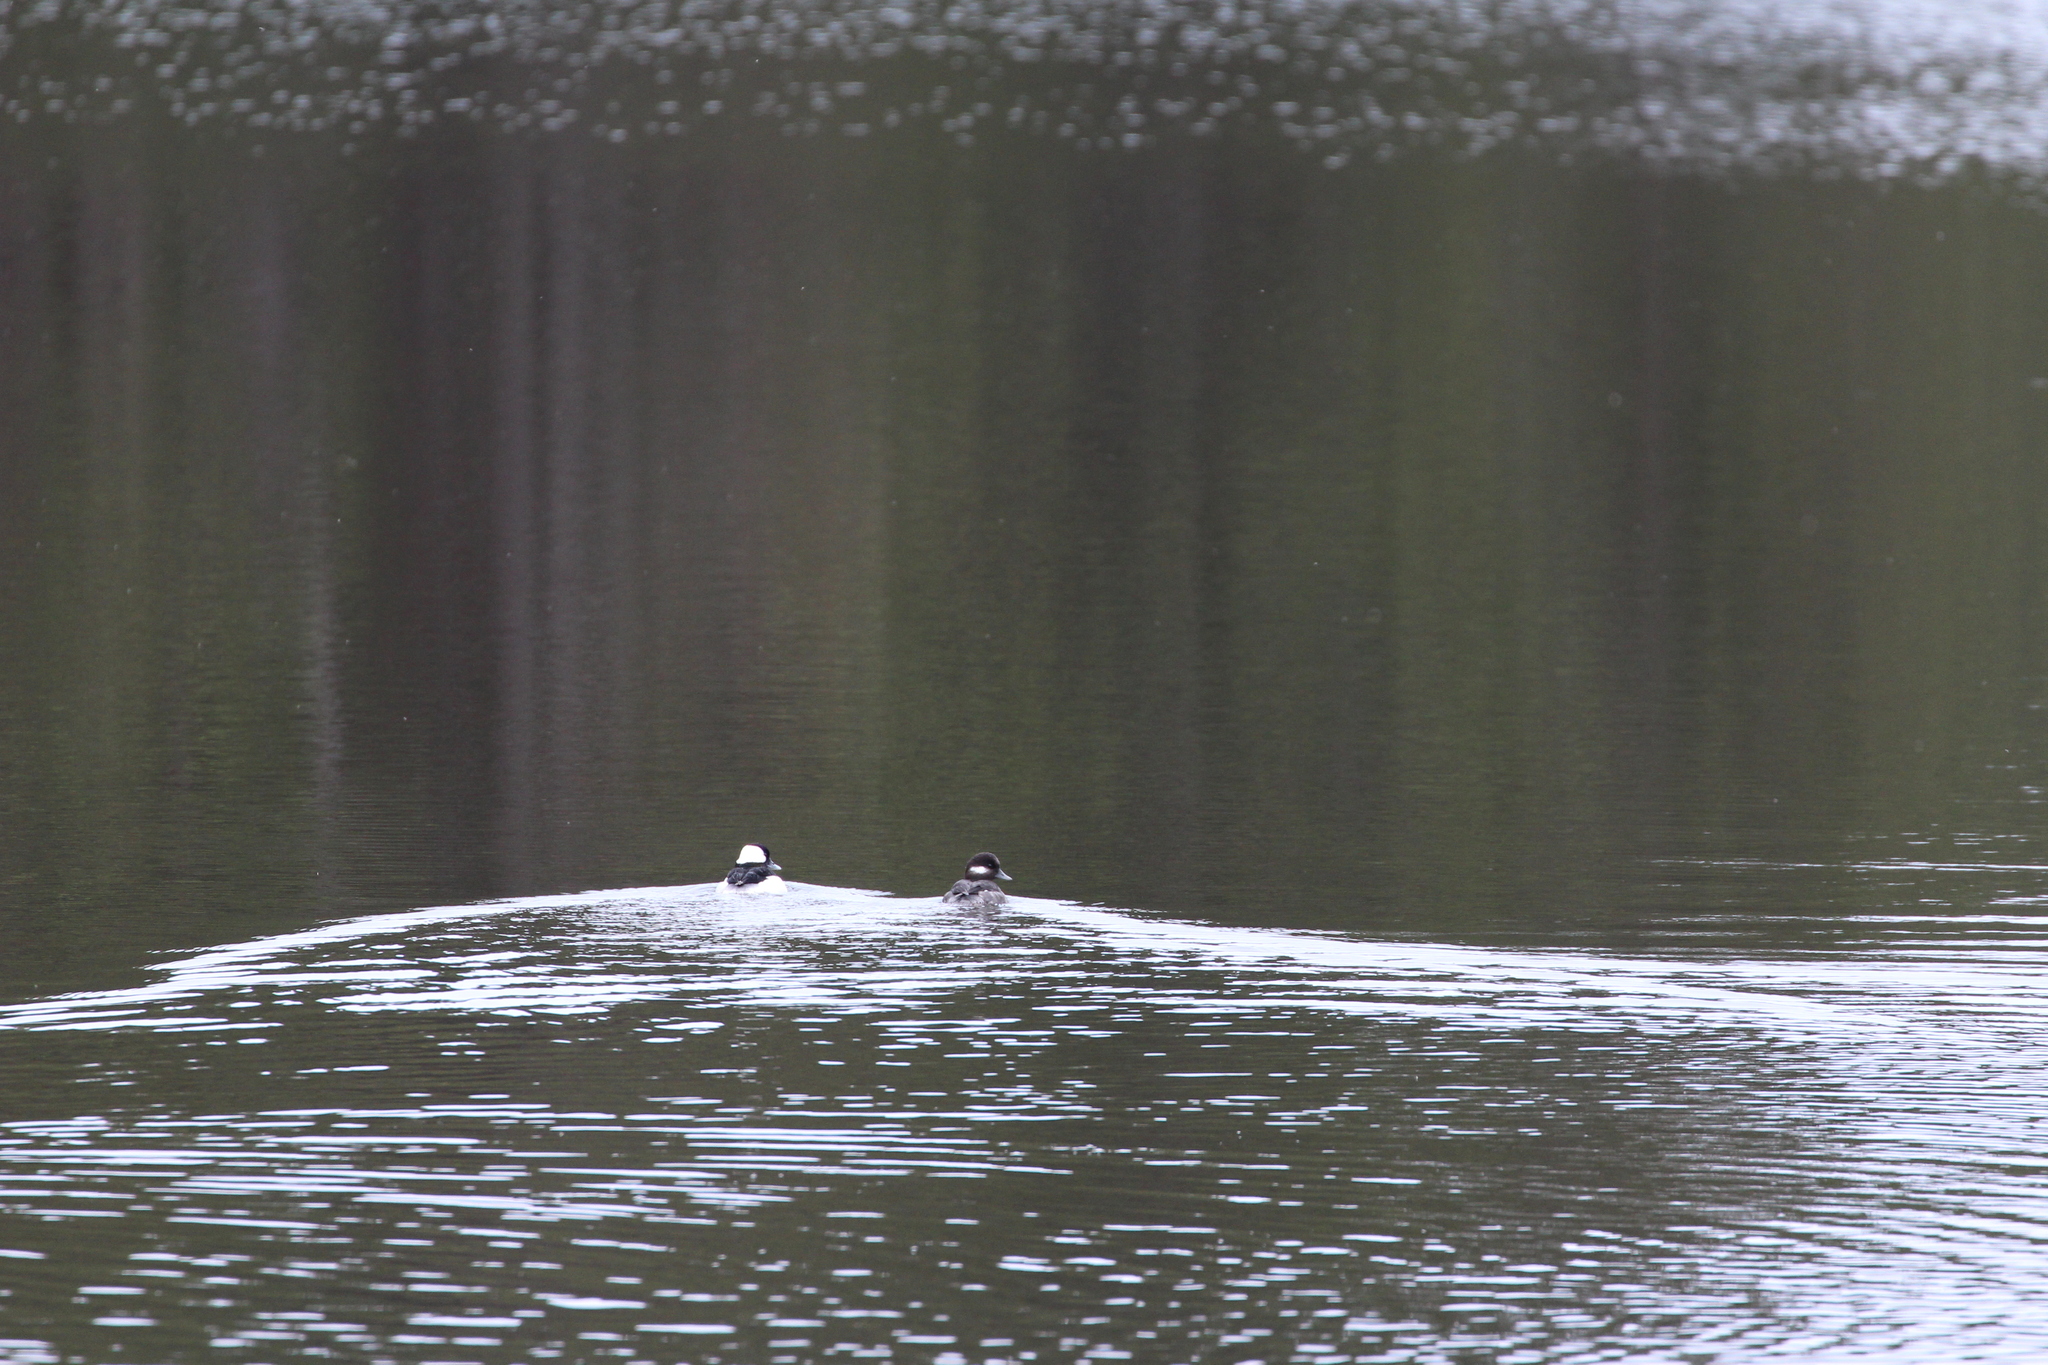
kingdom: Animalia
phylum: Chordata
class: Aves
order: Anseriformes
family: Anatidae
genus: Bucephala
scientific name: Bucephala albeola
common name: Bufflehead
